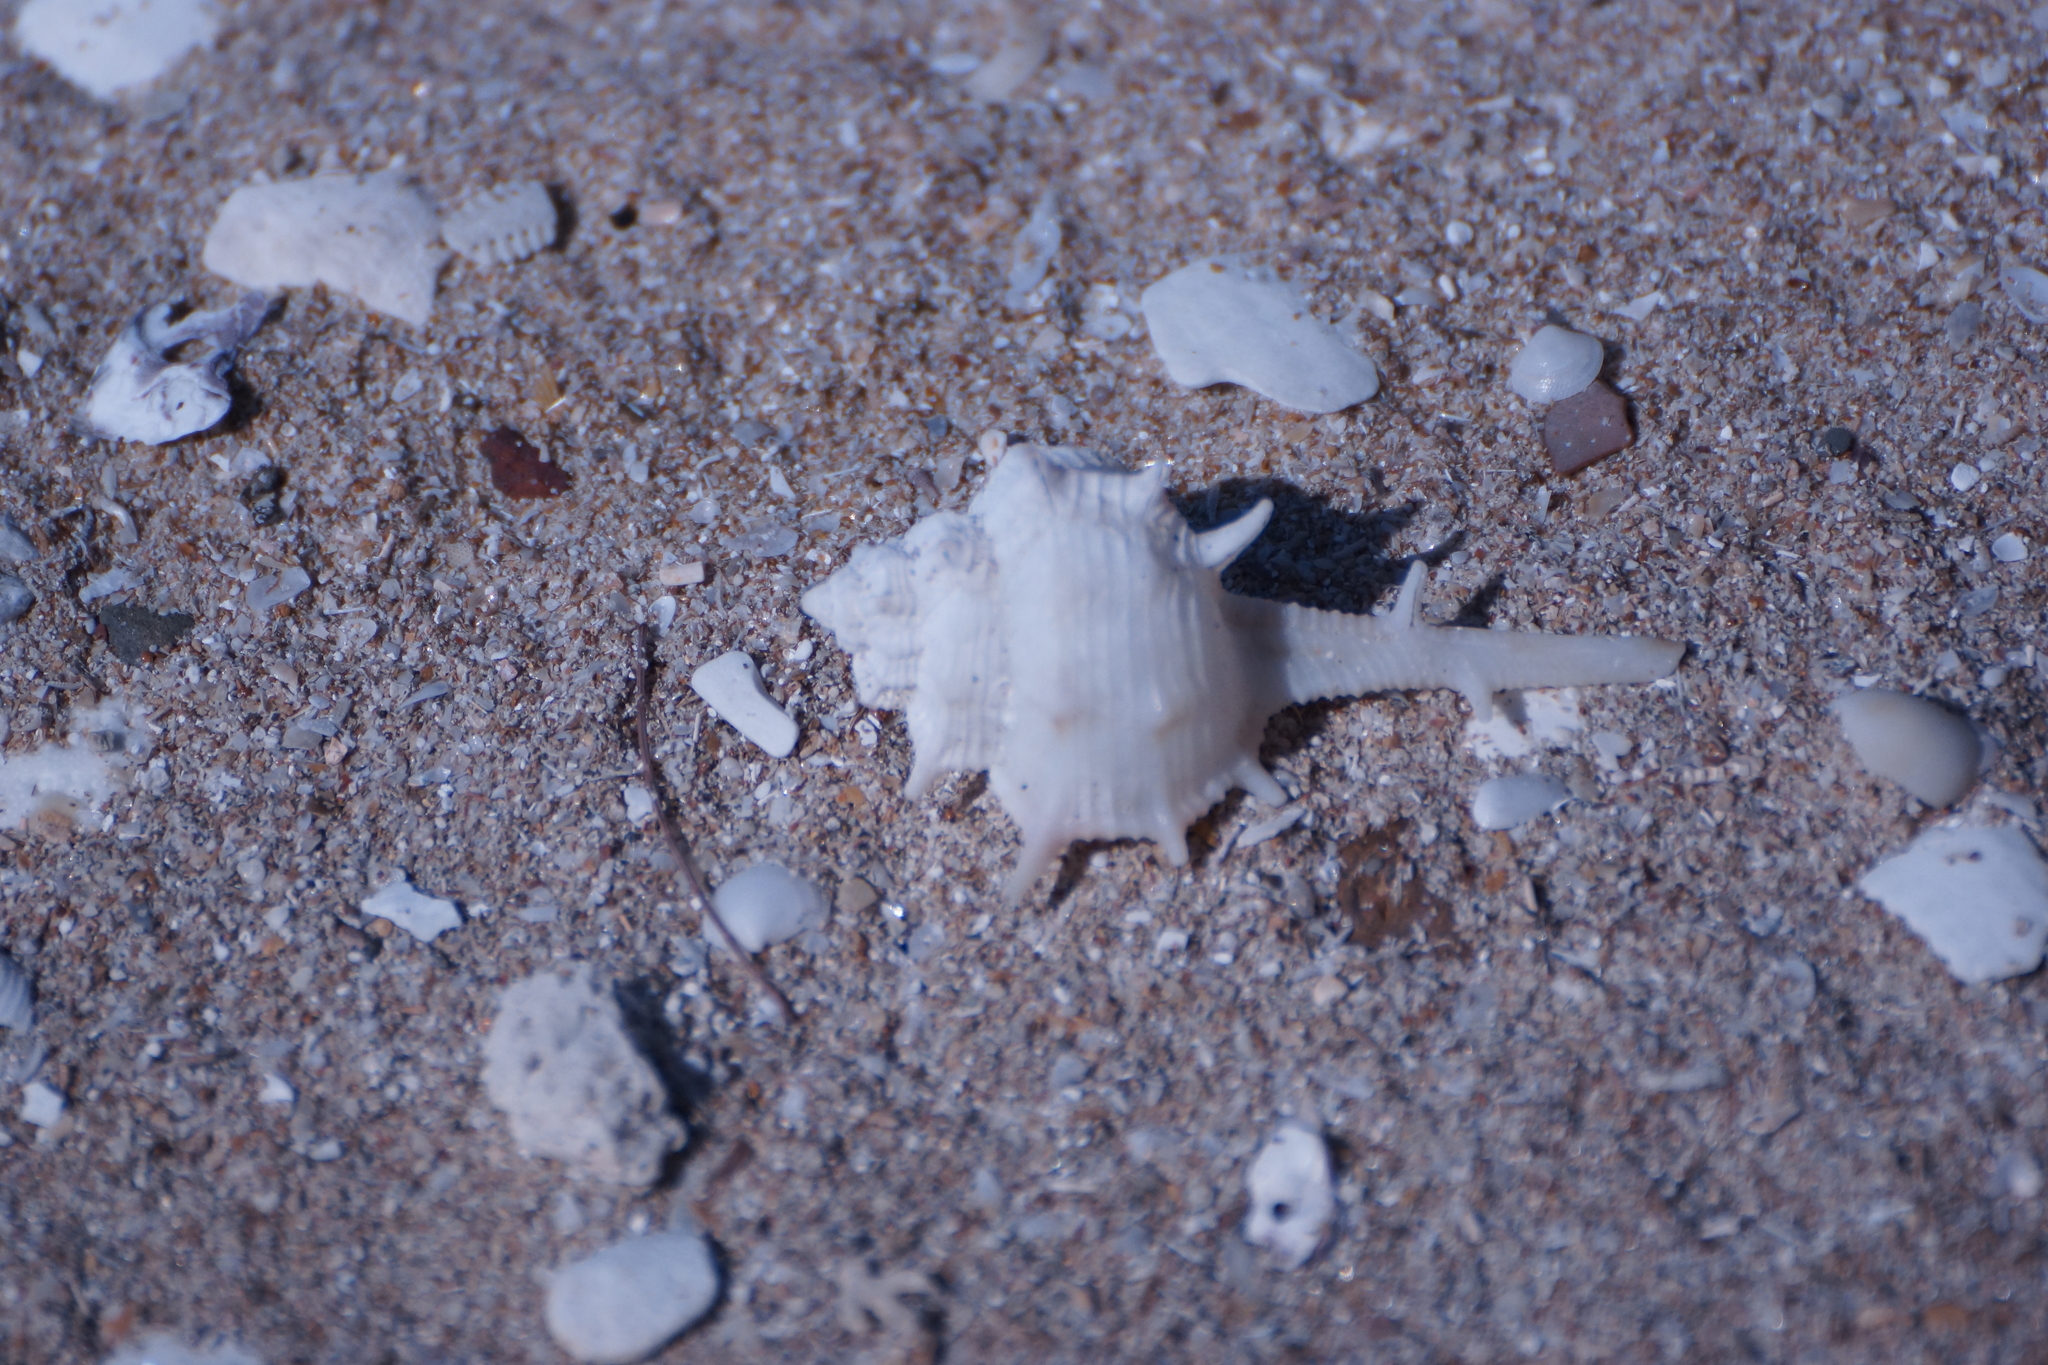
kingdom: Animalia
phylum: Mollusca
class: Gastropoda
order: Neogastropoda
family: Muricidae
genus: Murex
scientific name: Murex brevispina
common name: Brevispined murex
